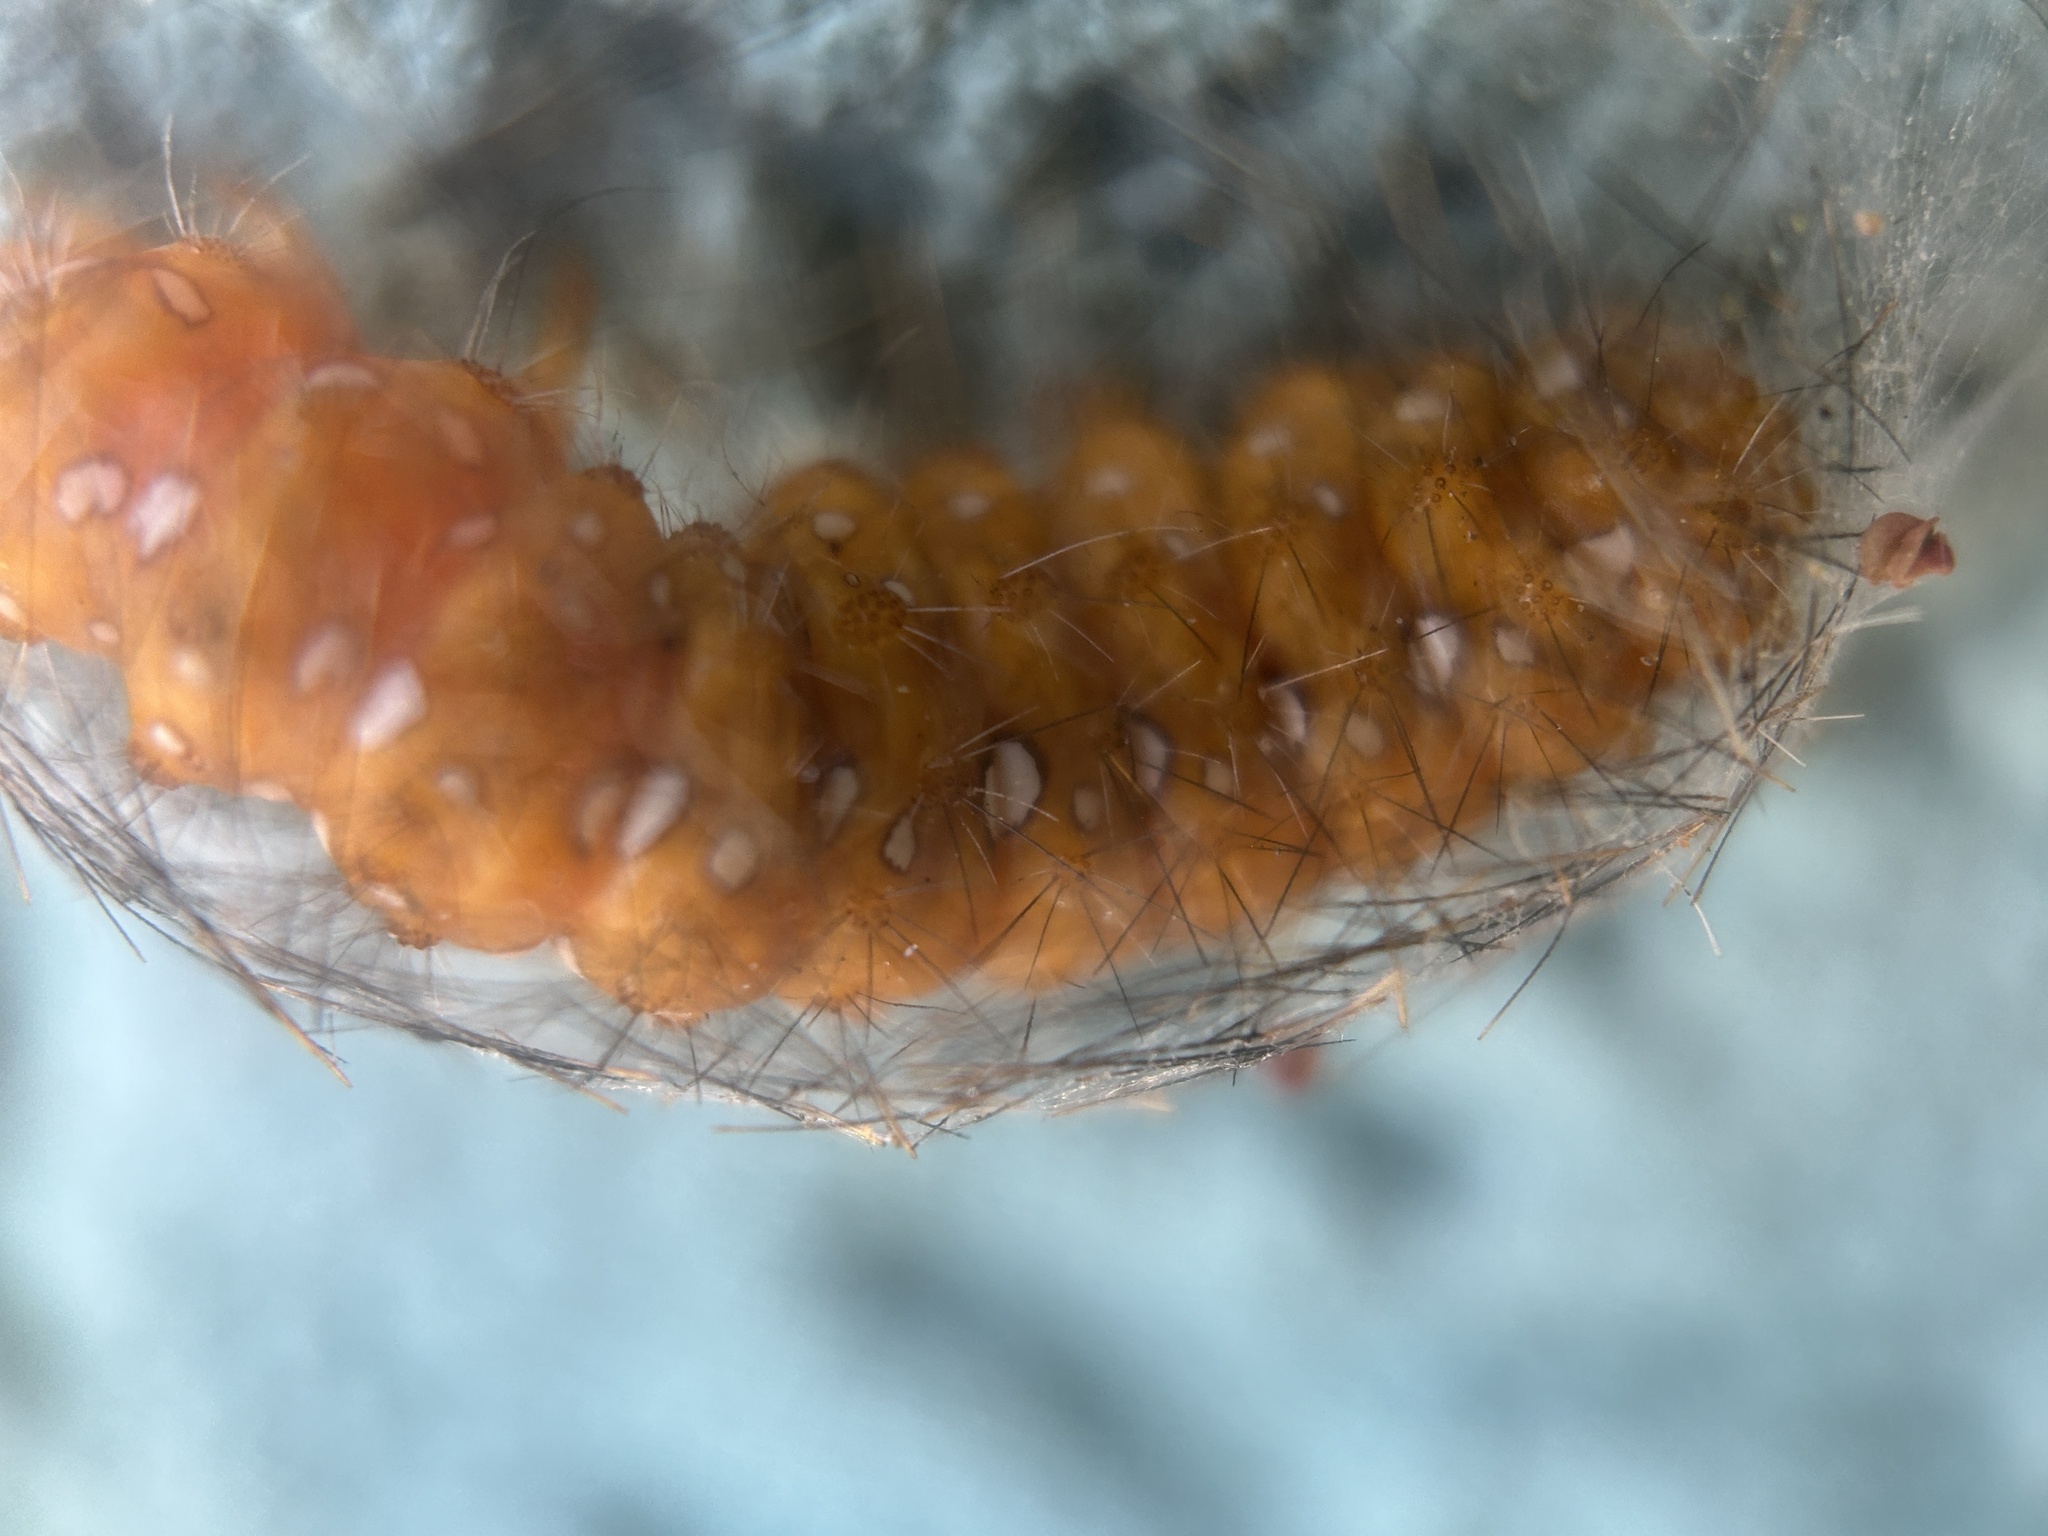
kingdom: Animalia
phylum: Arthropoda
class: Insecta
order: Lepidoptera
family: Erebidae
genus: Empyreuma
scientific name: Empyreuma pugione
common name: Spotted oleander caterpillar moth
